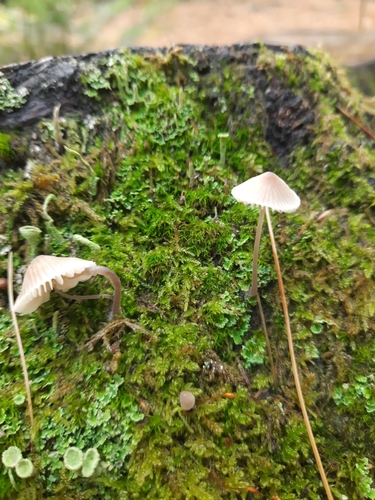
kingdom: Fungi
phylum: Basidiomycota
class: Agaricomycetes
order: Agaricales
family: Mycenaceae
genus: Mycena
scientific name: Mycena
